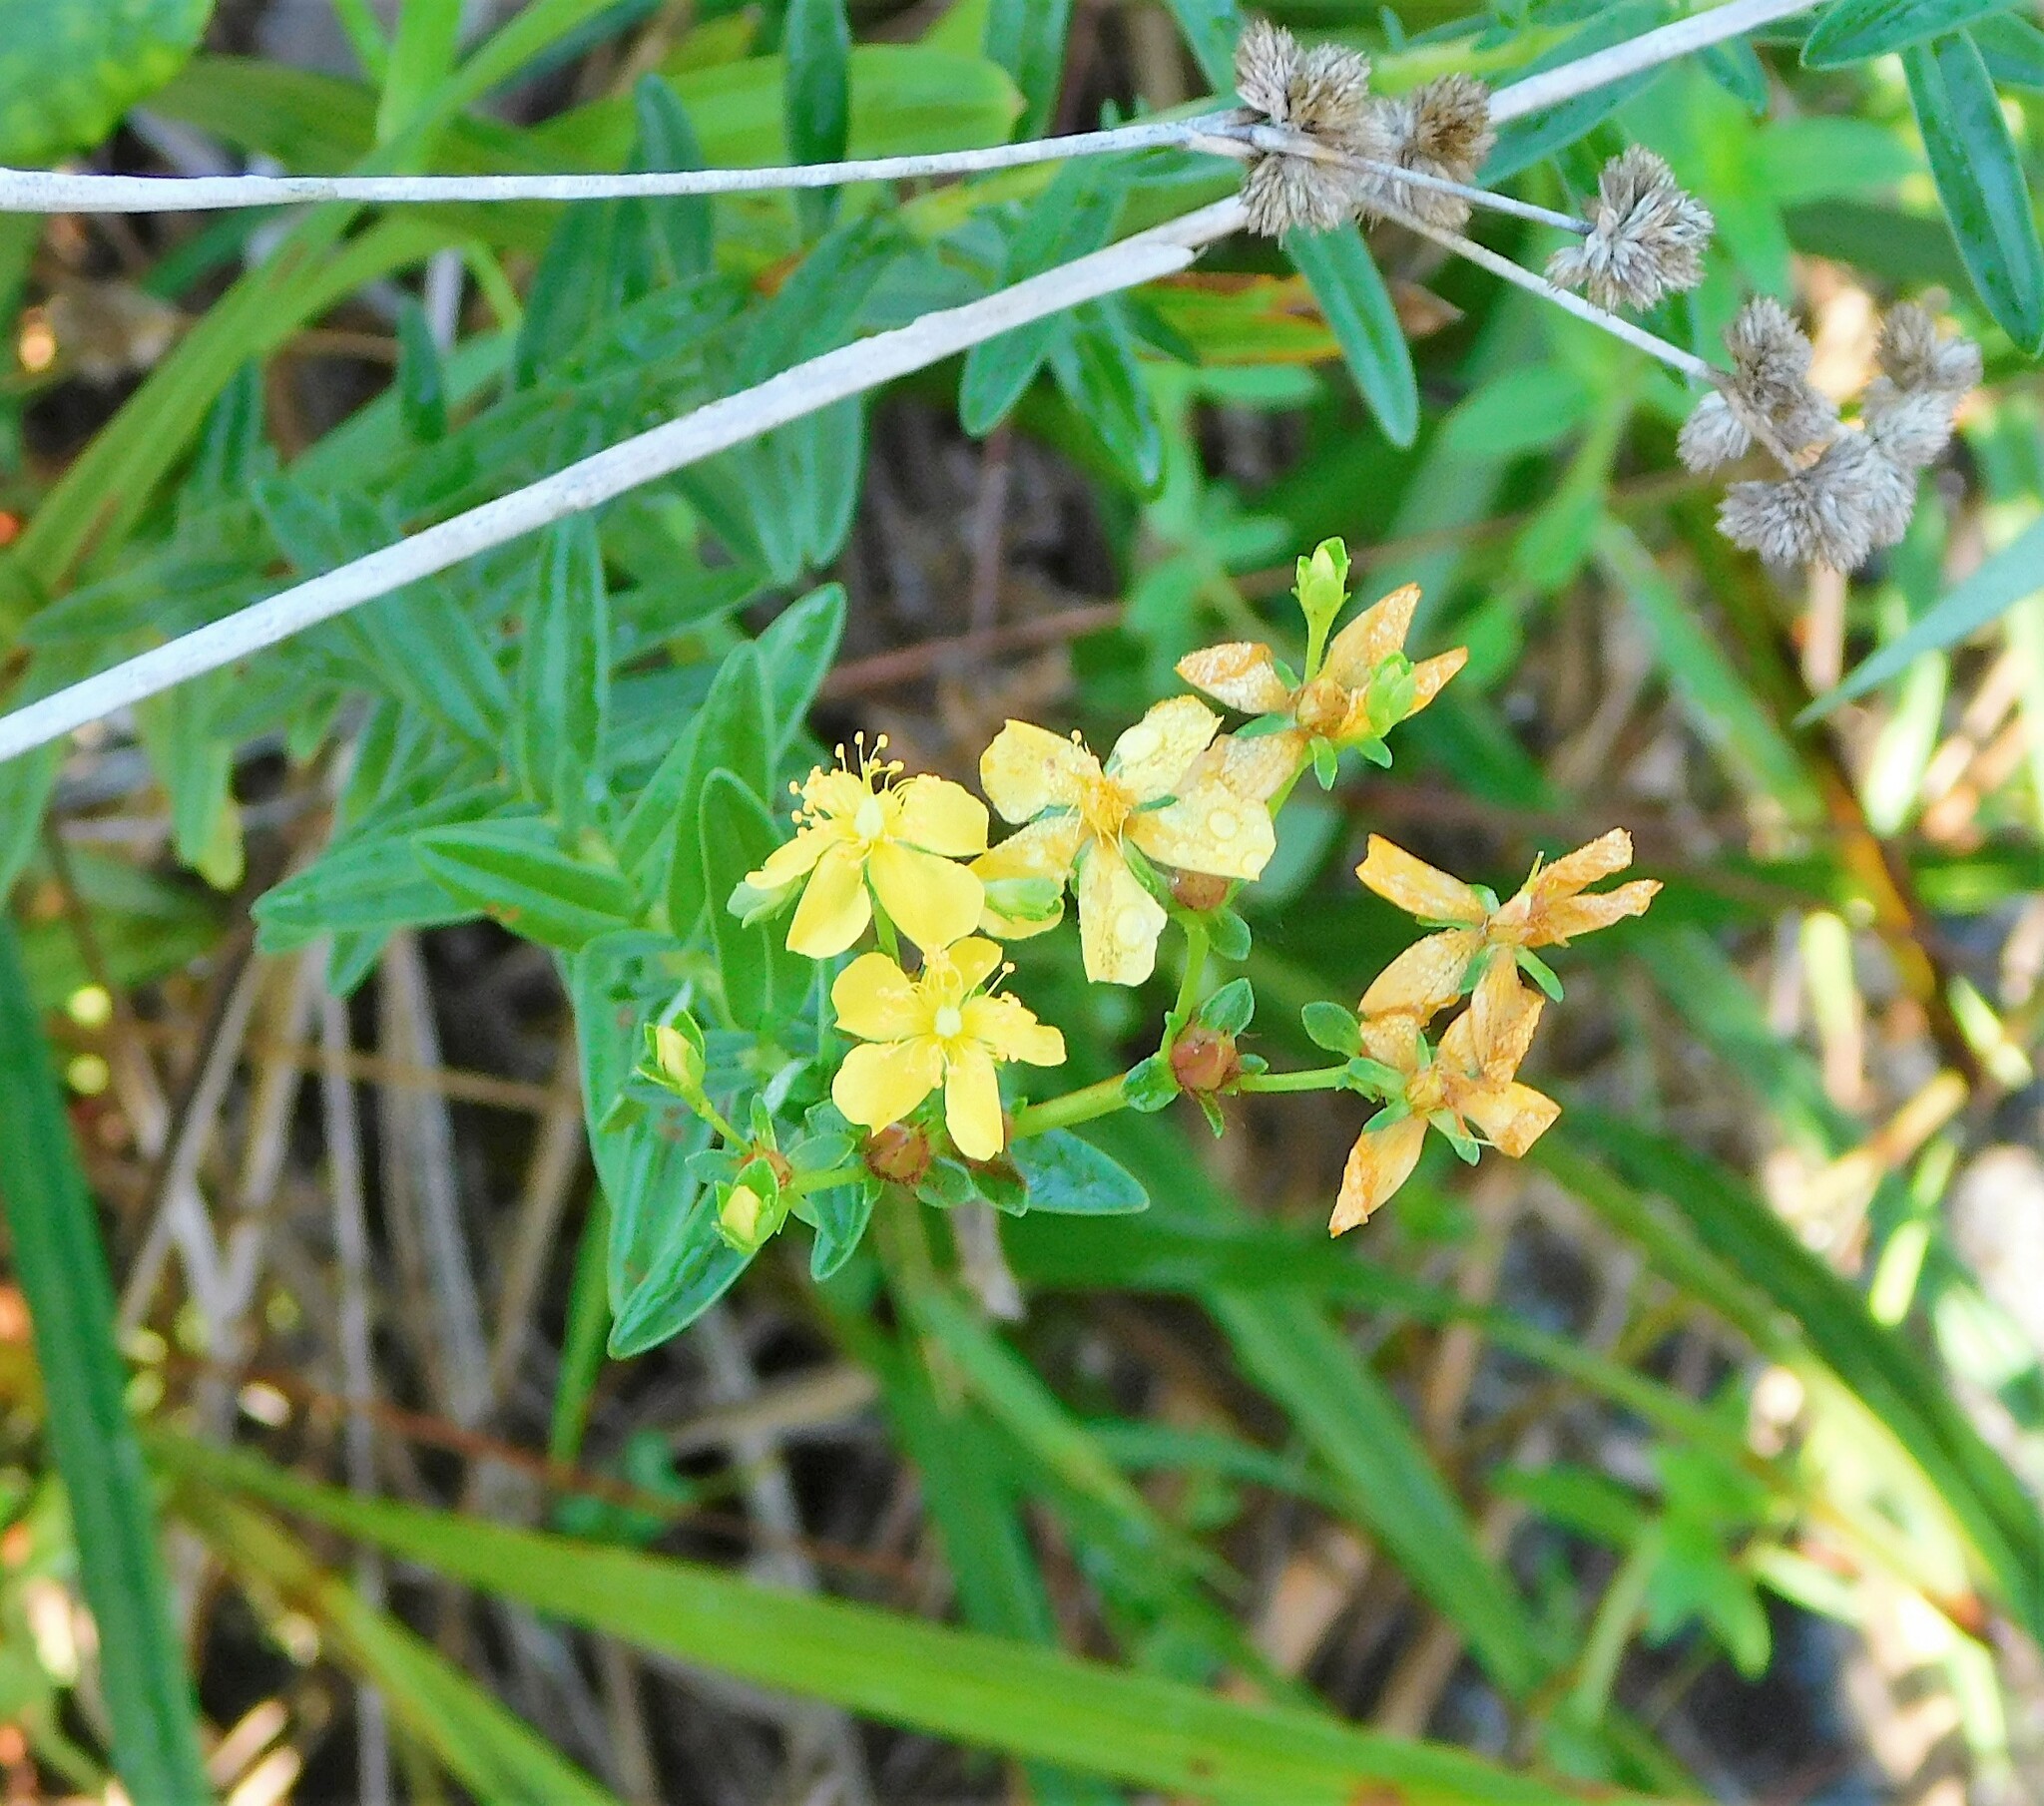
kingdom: Plantae
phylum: Tracheophyta
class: Magnoliopsida
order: Malpighiales
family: Hypericaceae
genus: Hypericum
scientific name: Hypericum cistifolium
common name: Round-pod st. john's-wort
